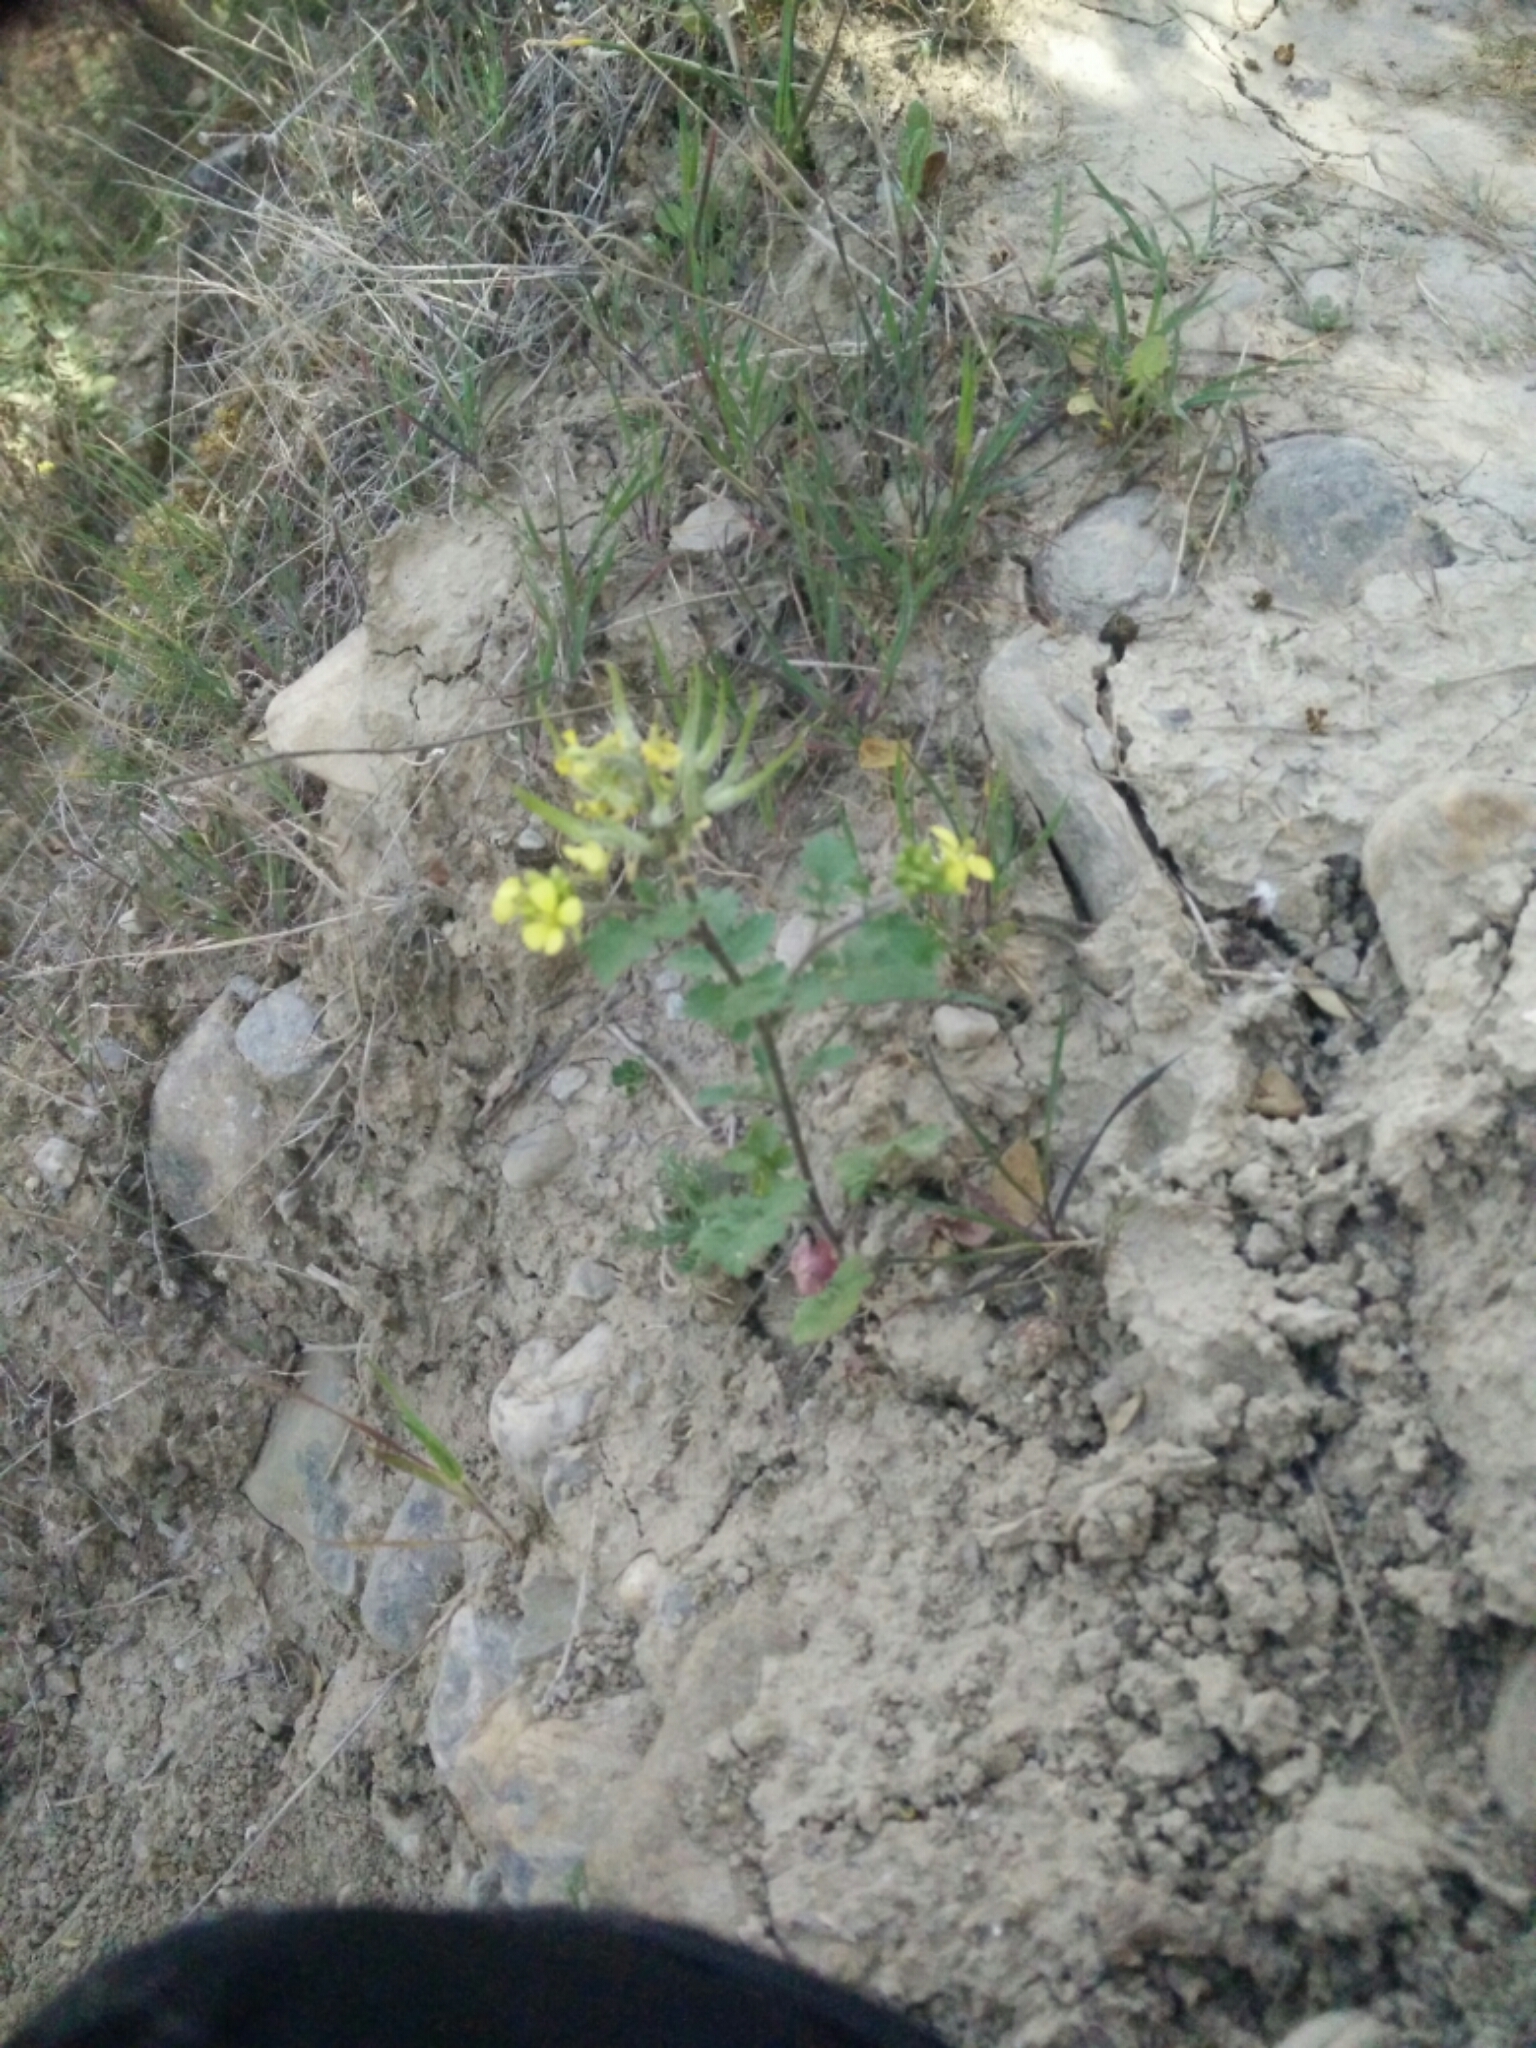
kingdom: Plantae
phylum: Tracheophyta
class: Magnoliopsida
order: Brassicales
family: Brassicaceae
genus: Sinapis
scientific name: Sinapis alba
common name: White mustard
